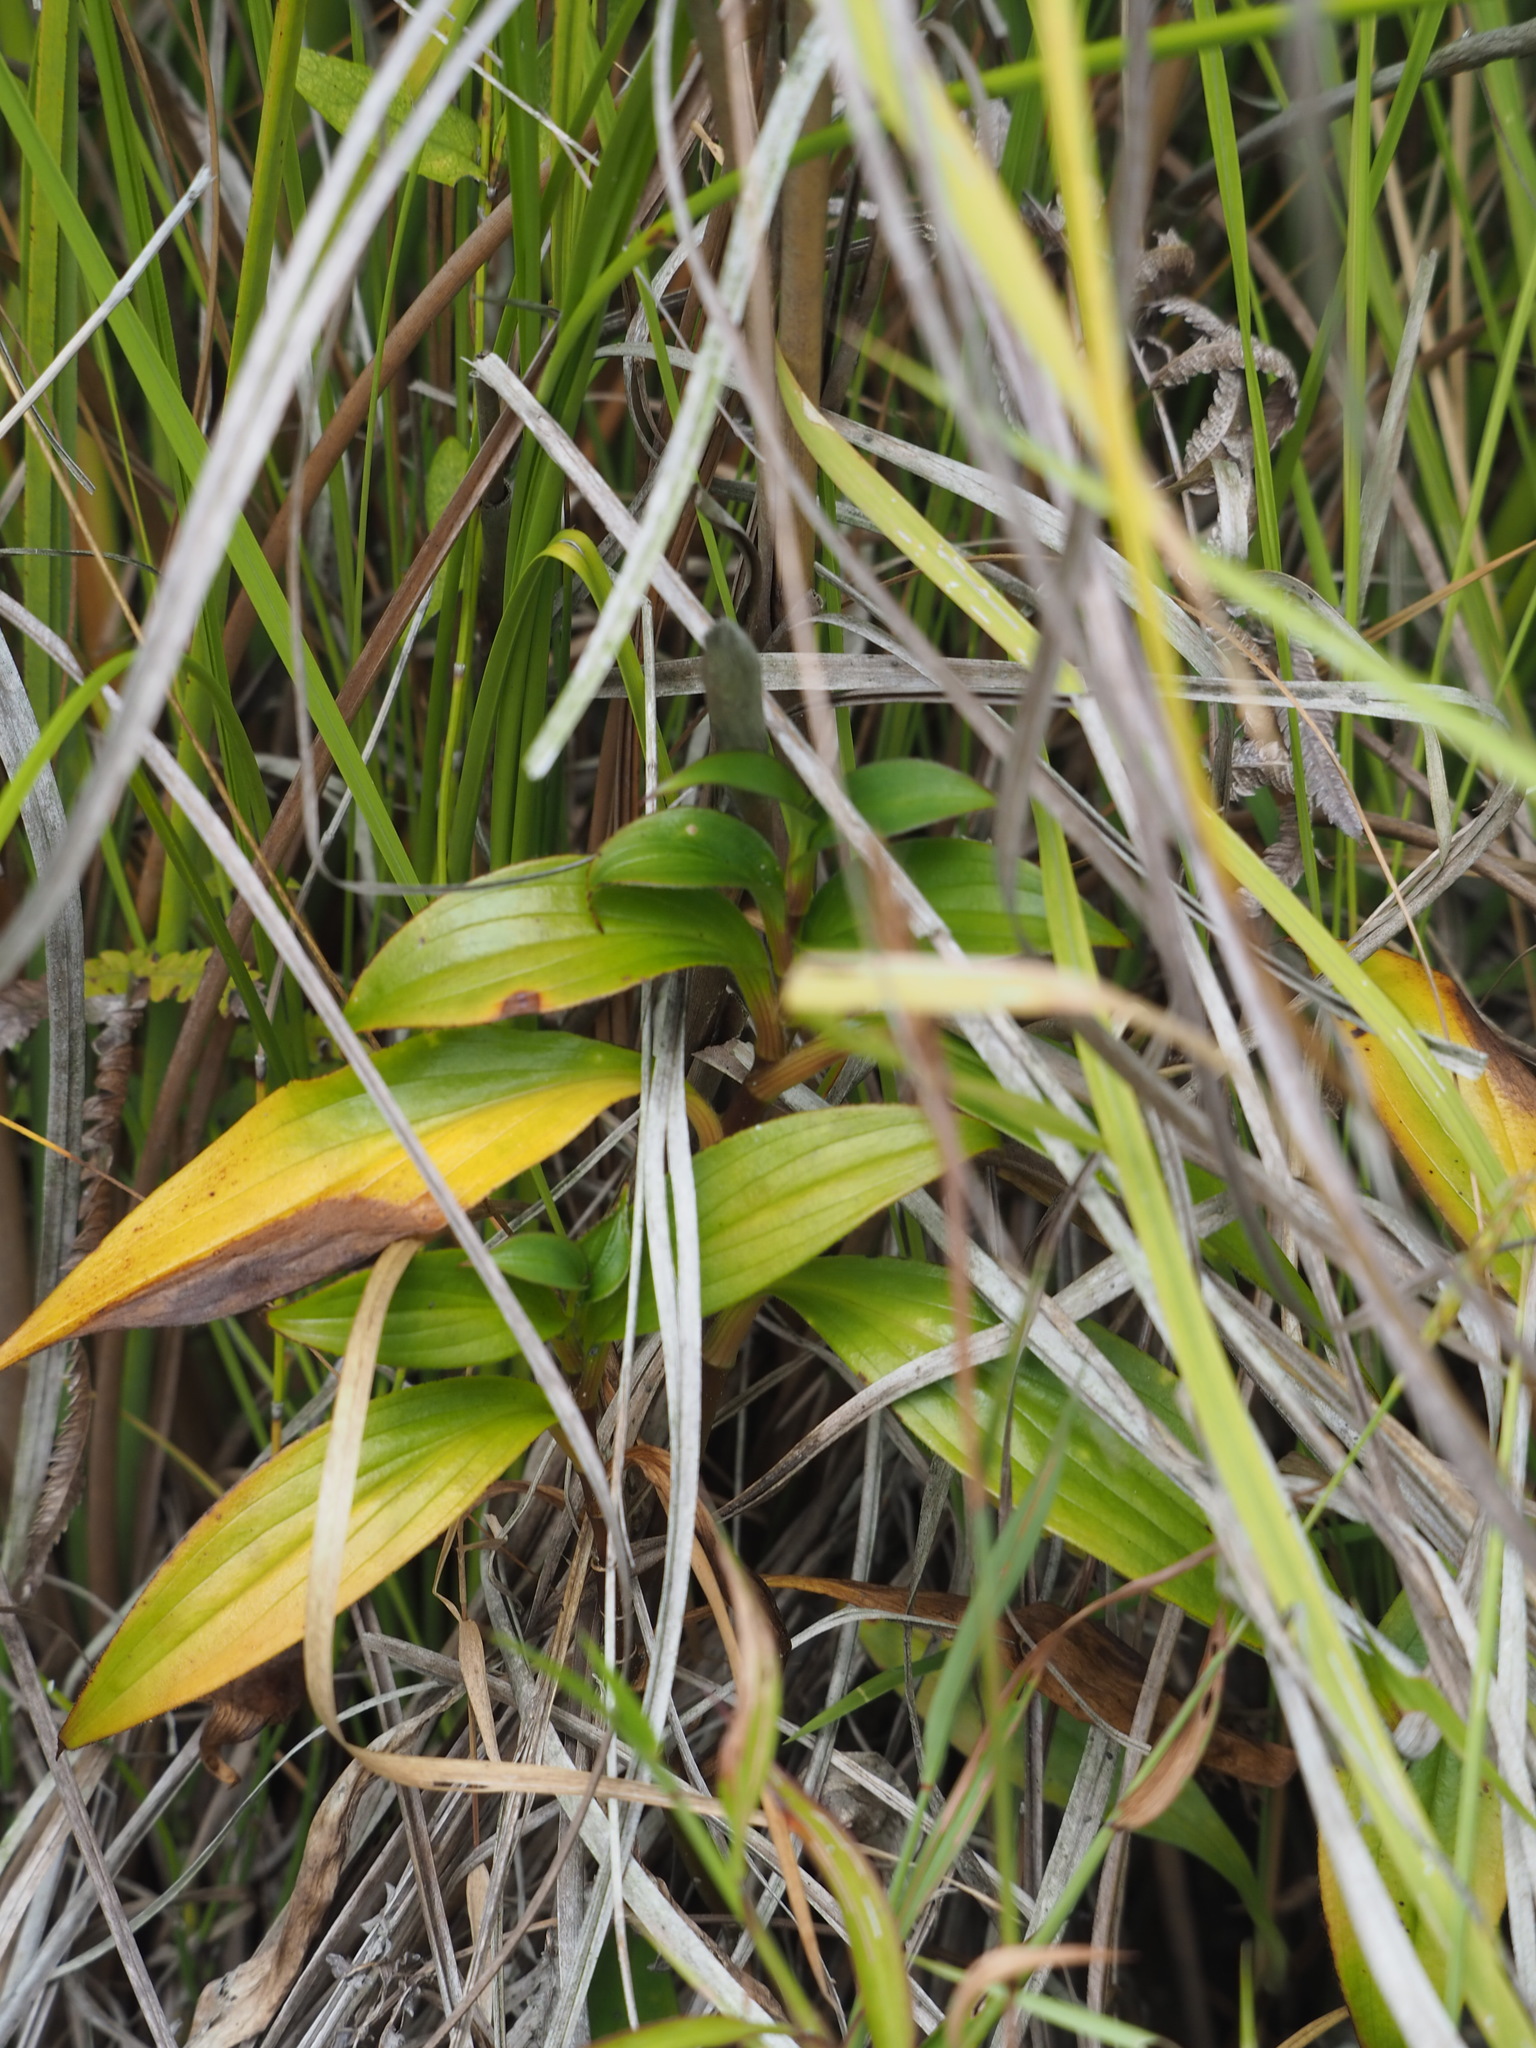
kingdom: Plantae
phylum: Tracheophyta
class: Liliopsida
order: Liliales
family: Liliaceae
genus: Tricyrtis
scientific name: Tricyrtis formosana
